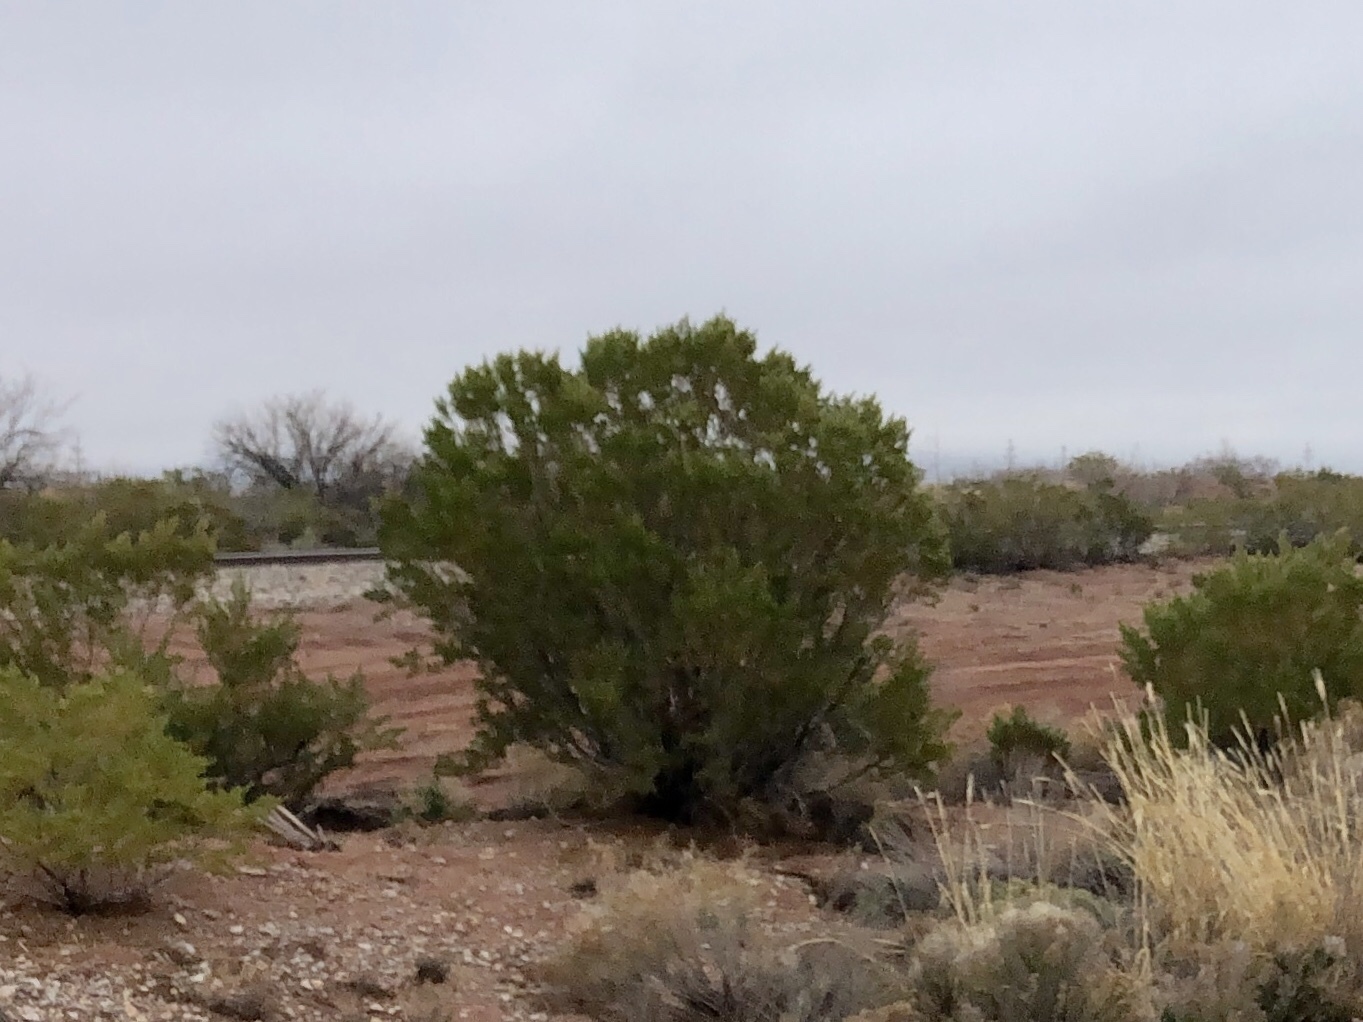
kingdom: Plantae
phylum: Tracheophyta
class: Magnoliopsida
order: Zygophyllales
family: Zygophyllaceae
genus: Larrea
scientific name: Larrea tridentata
